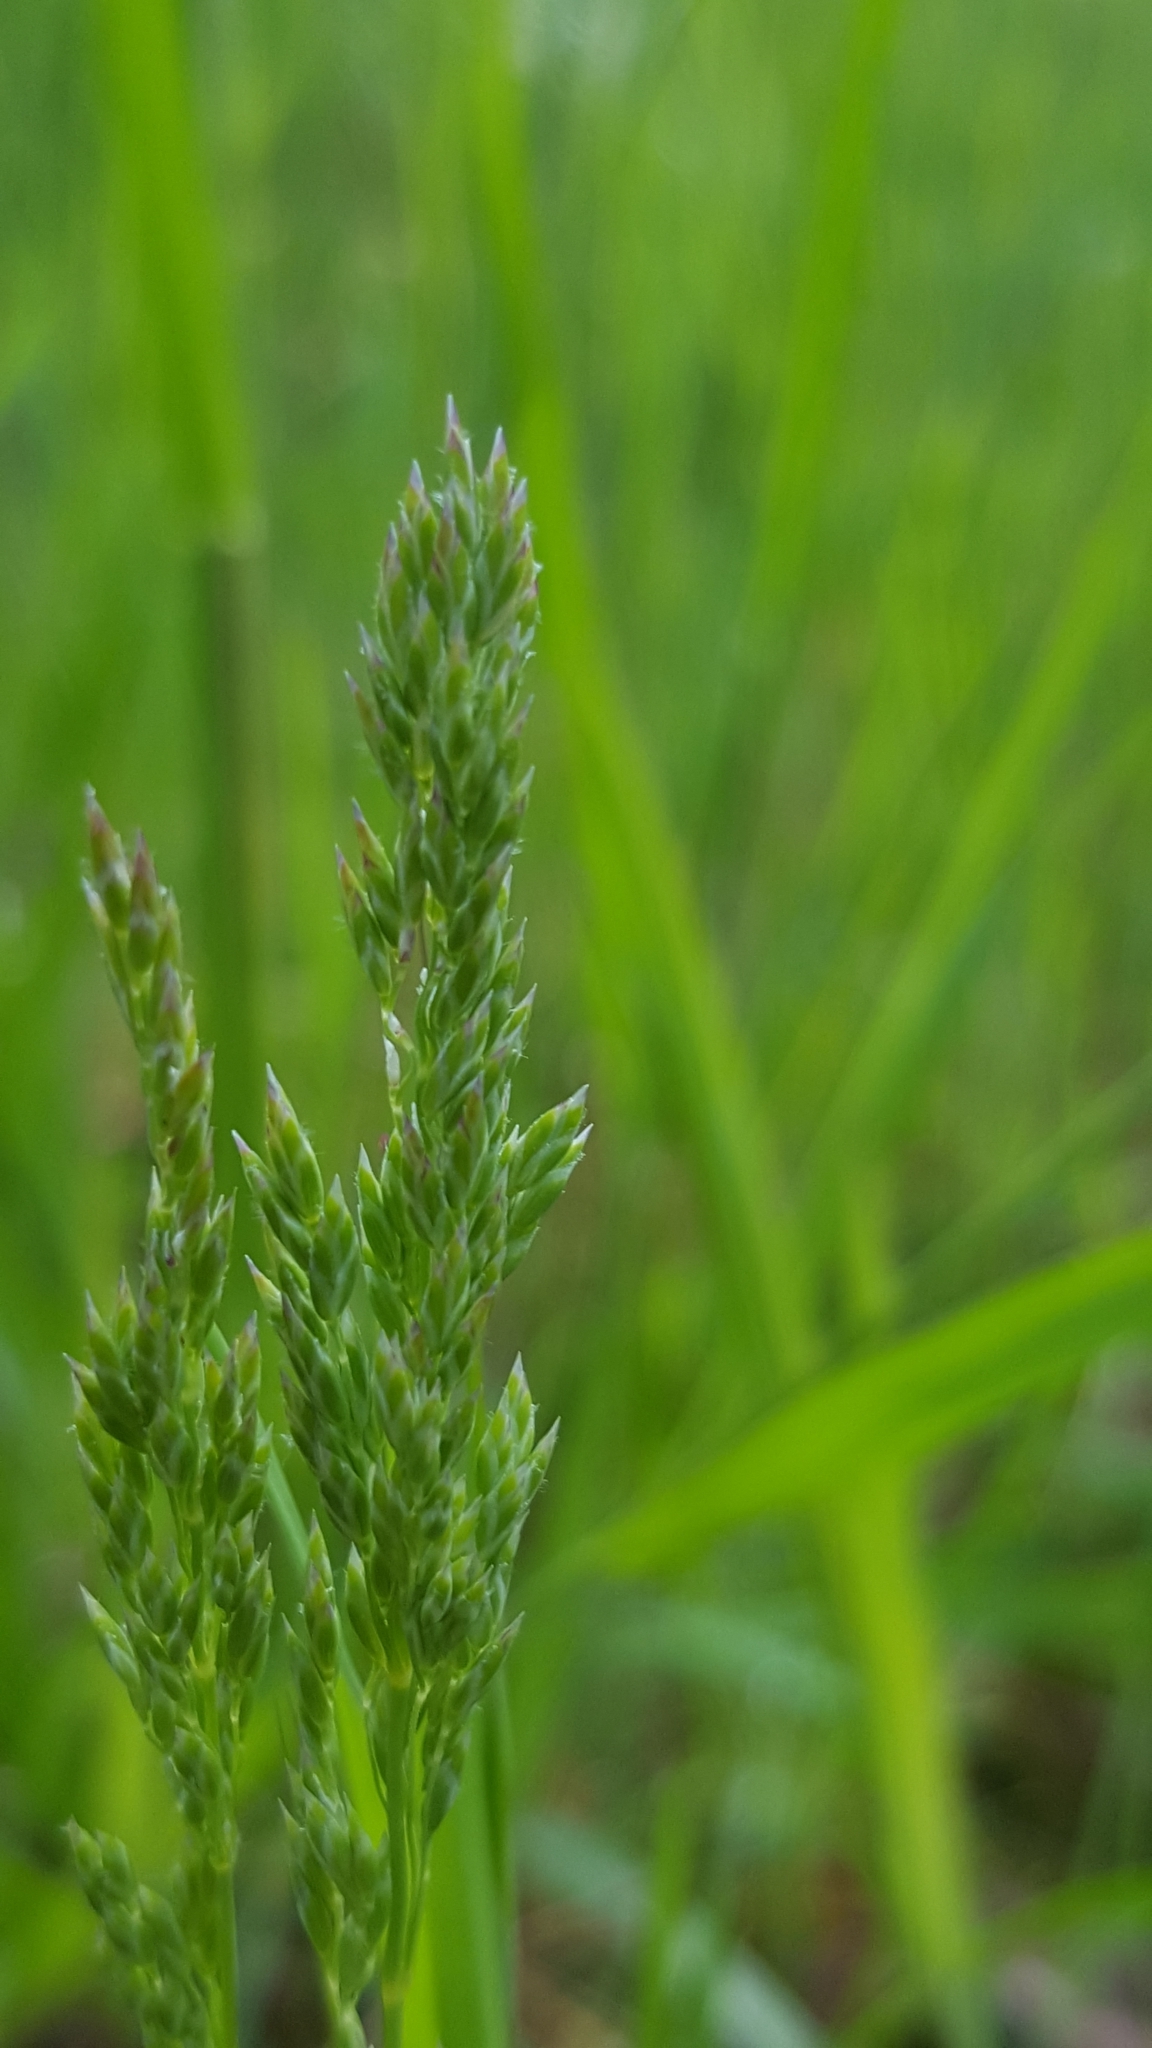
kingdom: Plantae
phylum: Tracheophyta
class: Liliopsida
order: Poales
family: Poaceae
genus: Poa
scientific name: Poa pratensis
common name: Kentucky bluegrass
